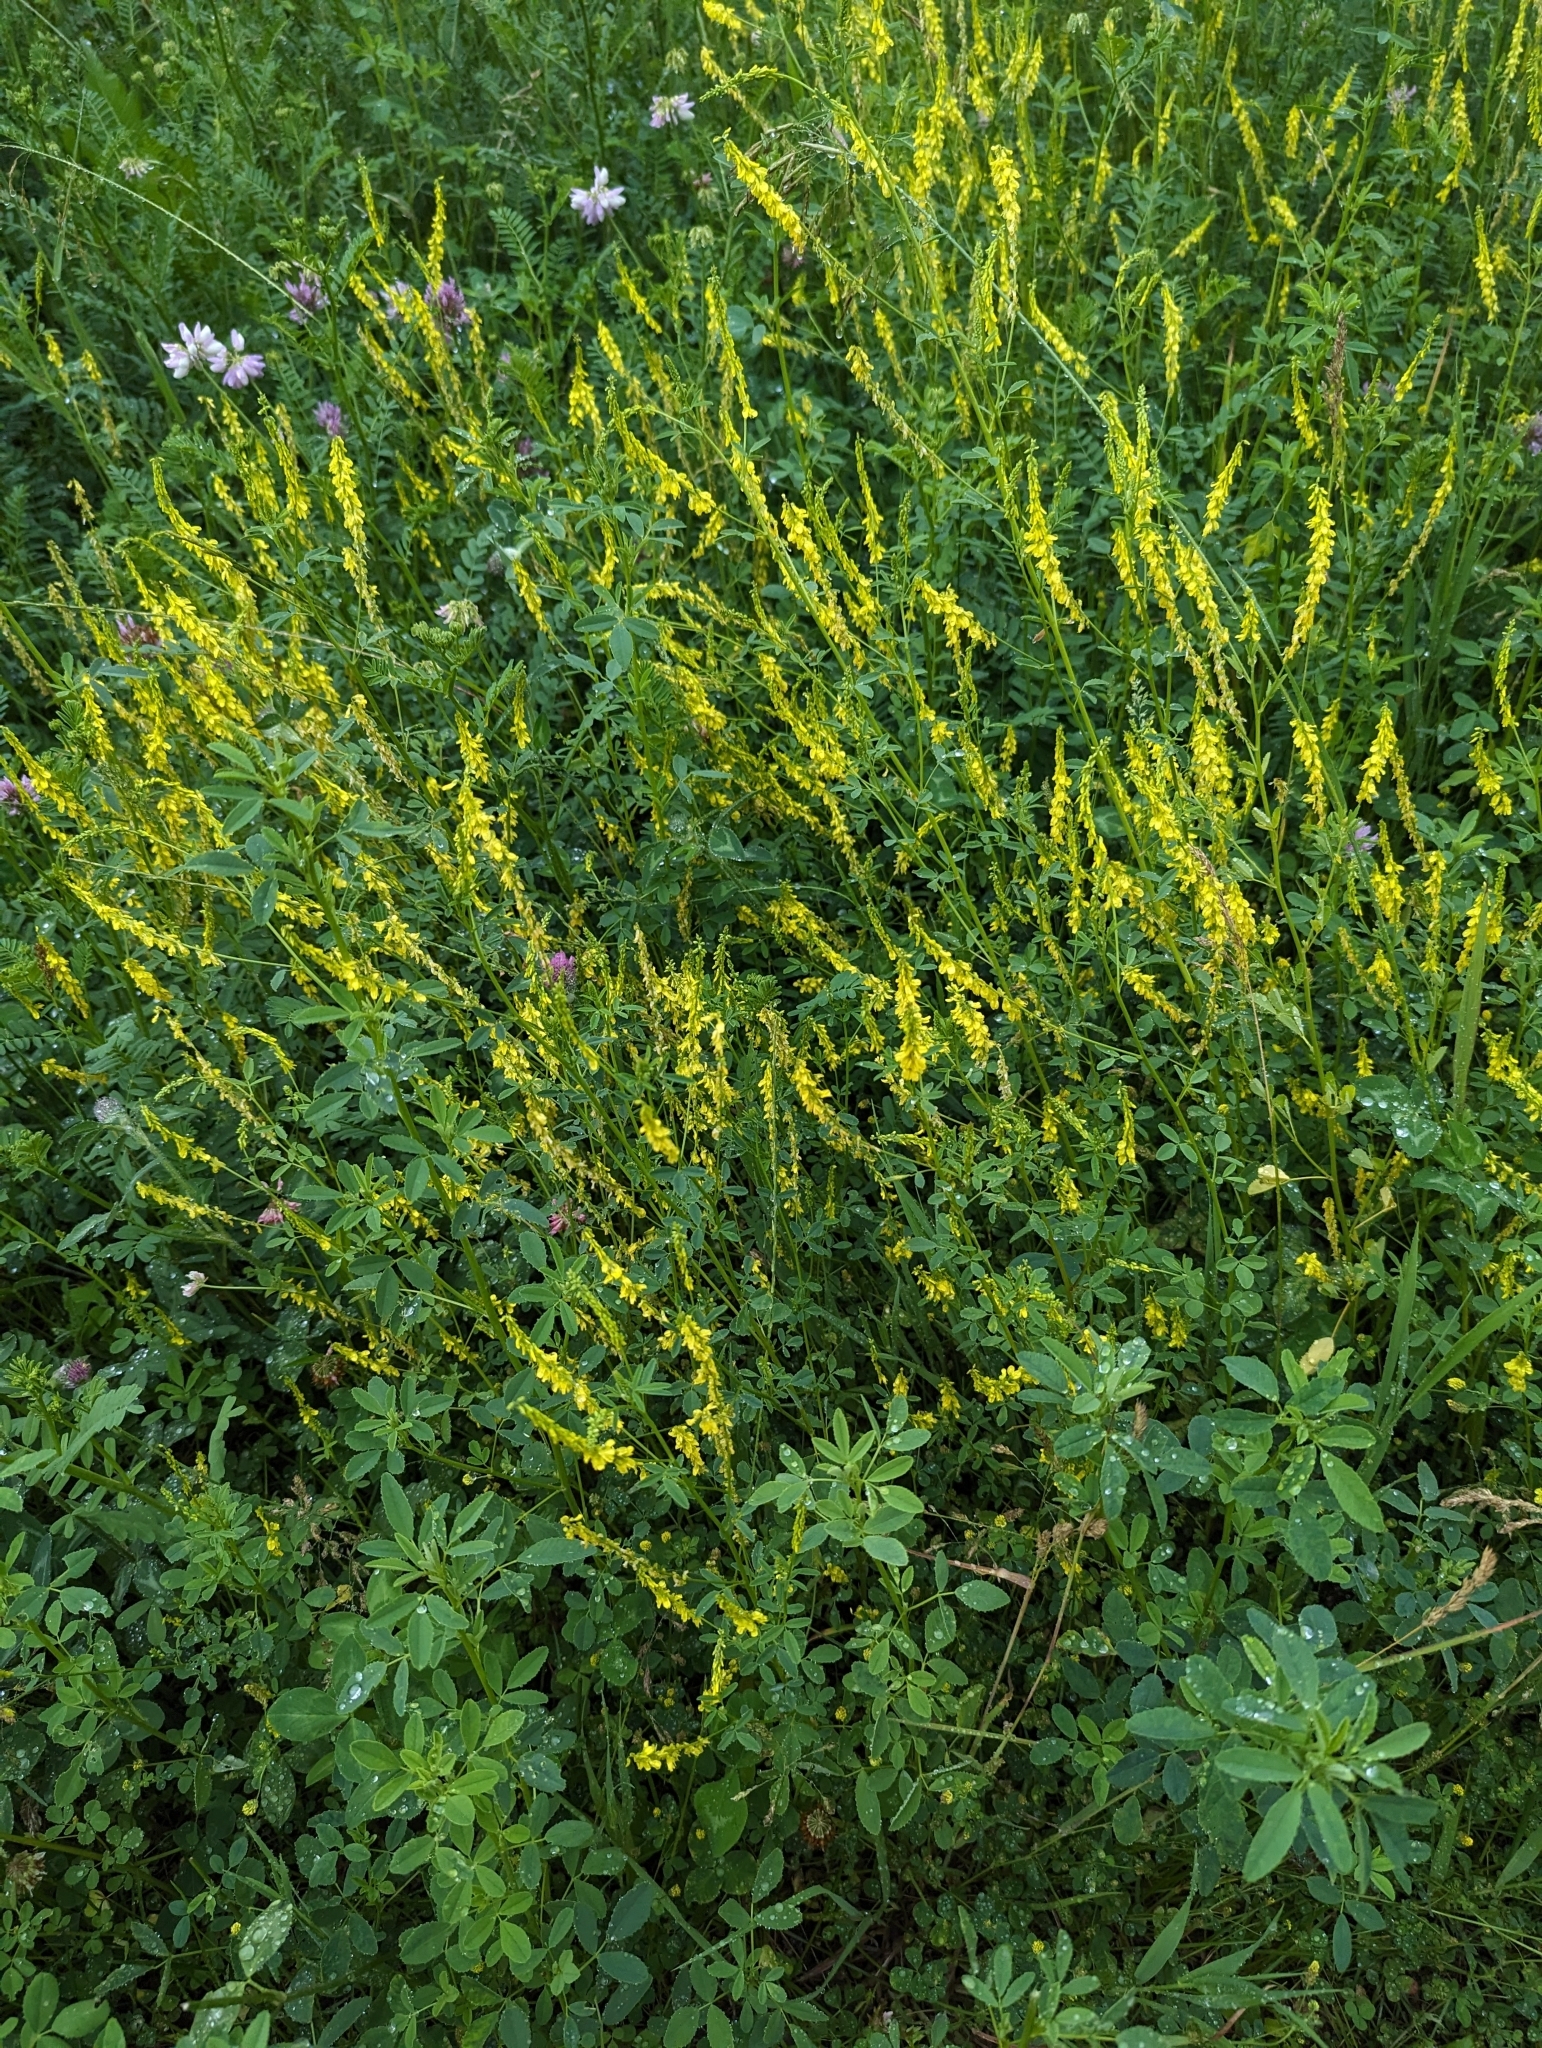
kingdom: Plantae
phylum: Tracheophyta
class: Magnoliopsida
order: Fabales
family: Fabaceae
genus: Melilotus
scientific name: Melilotus officinalis
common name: Sweetclover
